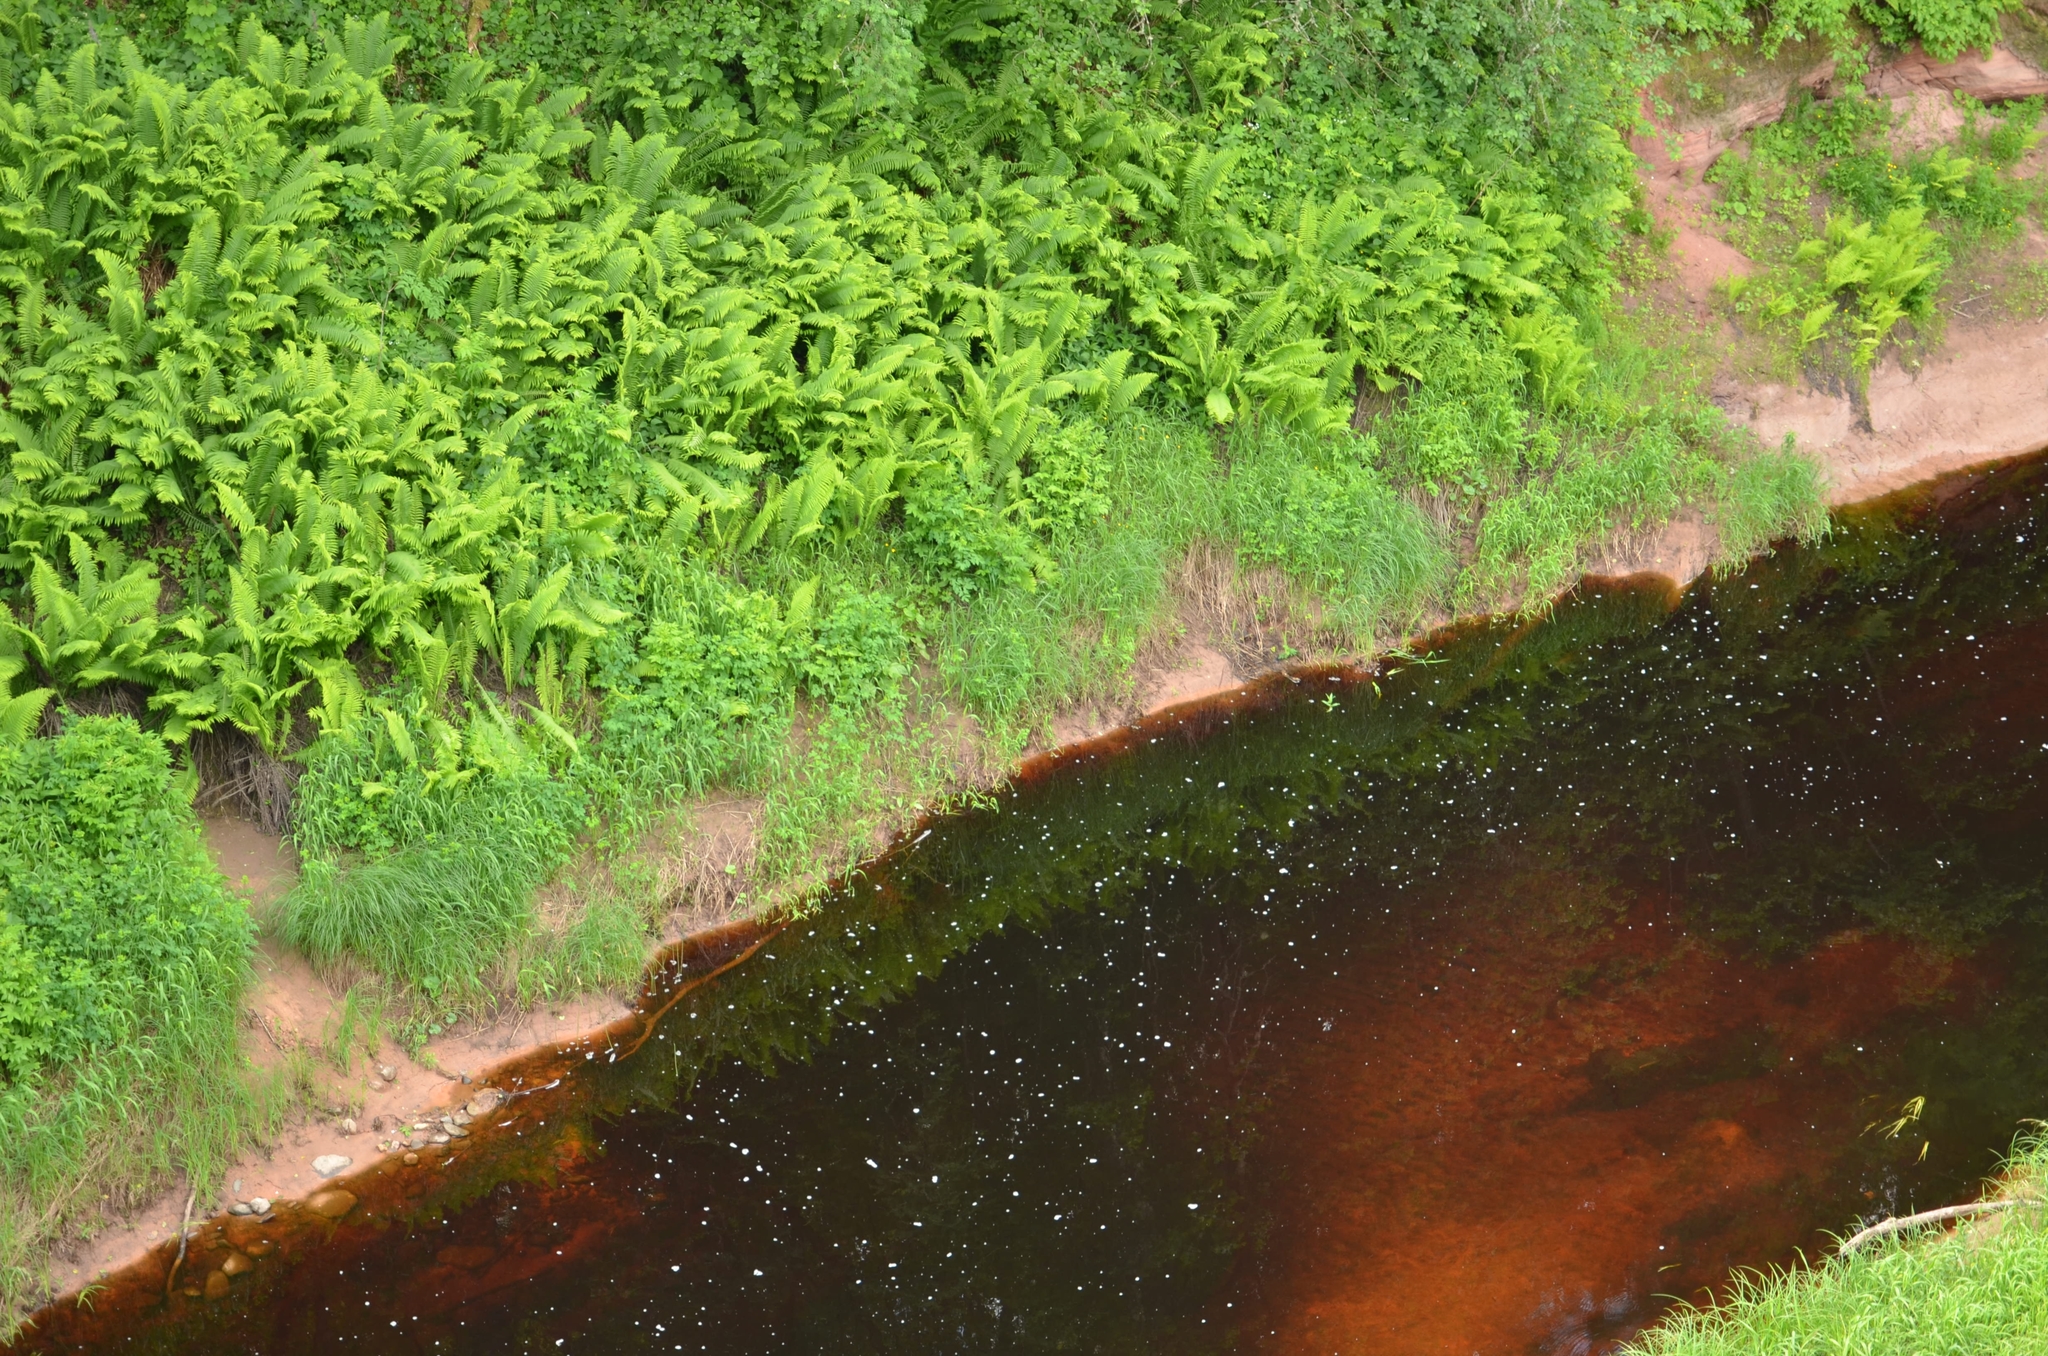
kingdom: Plantae
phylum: Tracheophyta
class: Polypodiopsida
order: Polypodiales
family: Onocleaceae
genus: Matteuccia
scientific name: Matteuccia struthiopteris
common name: Ostrich fern
